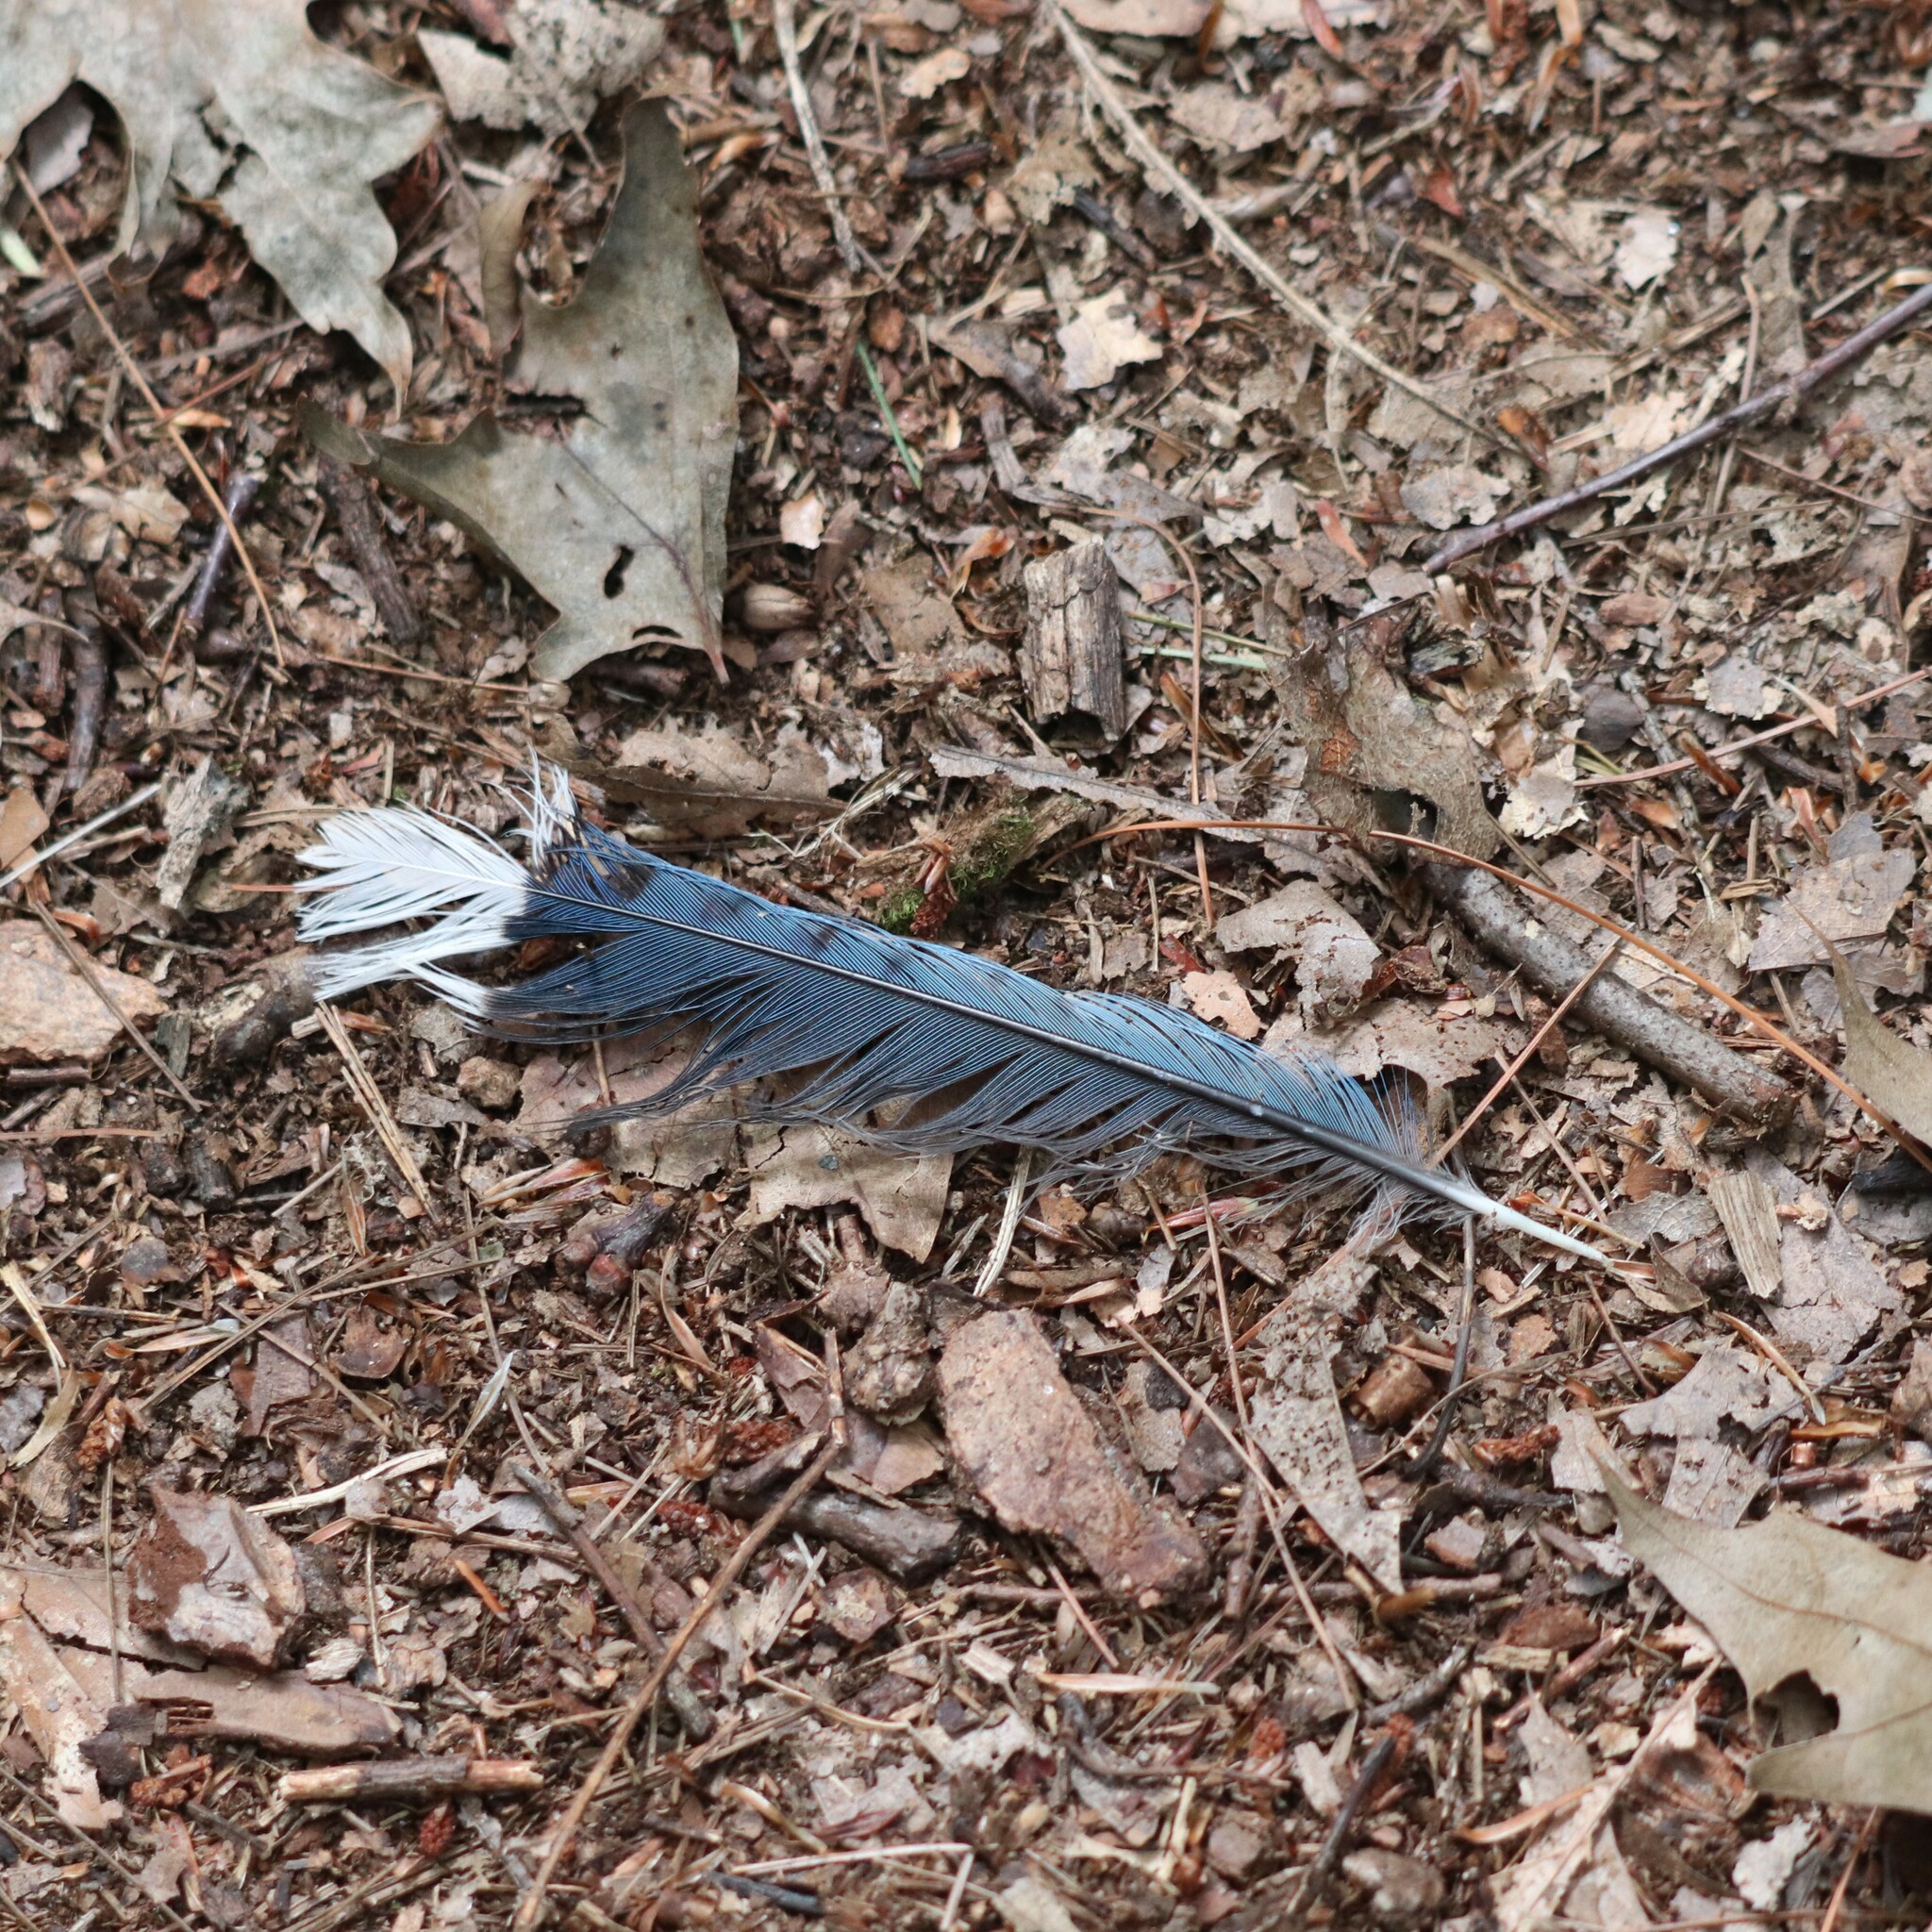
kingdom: Animalia
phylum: Chordata
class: Aves
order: Passeriformes
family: Corvidae
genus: Cyanocitta
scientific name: Cyanocitta cristata
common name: Blue jay
